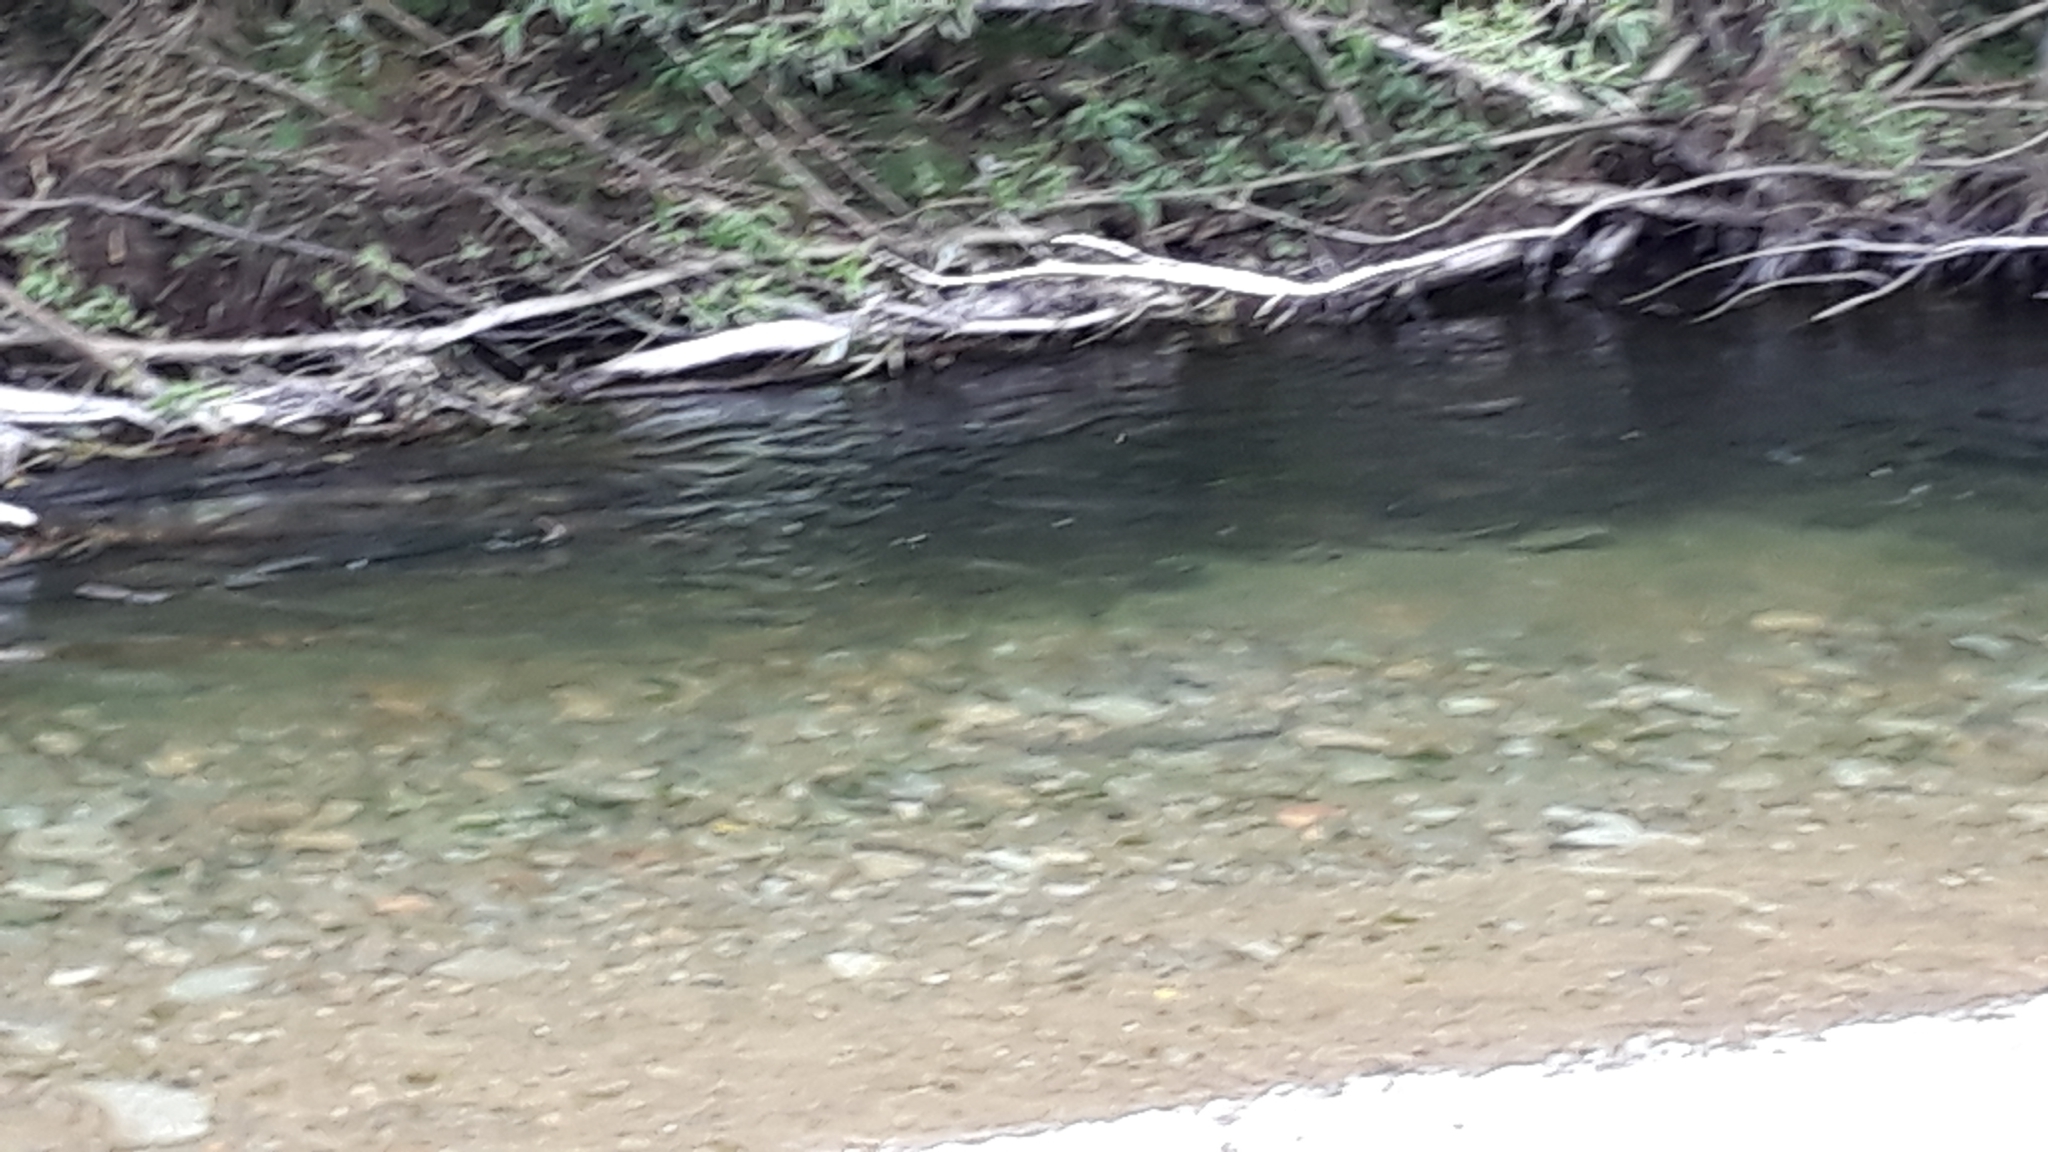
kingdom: Animalia
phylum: Chordata
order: Salmoniformes
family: Salmonidae
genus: Salmo
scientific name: Salmo trutta
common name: Brown trout
